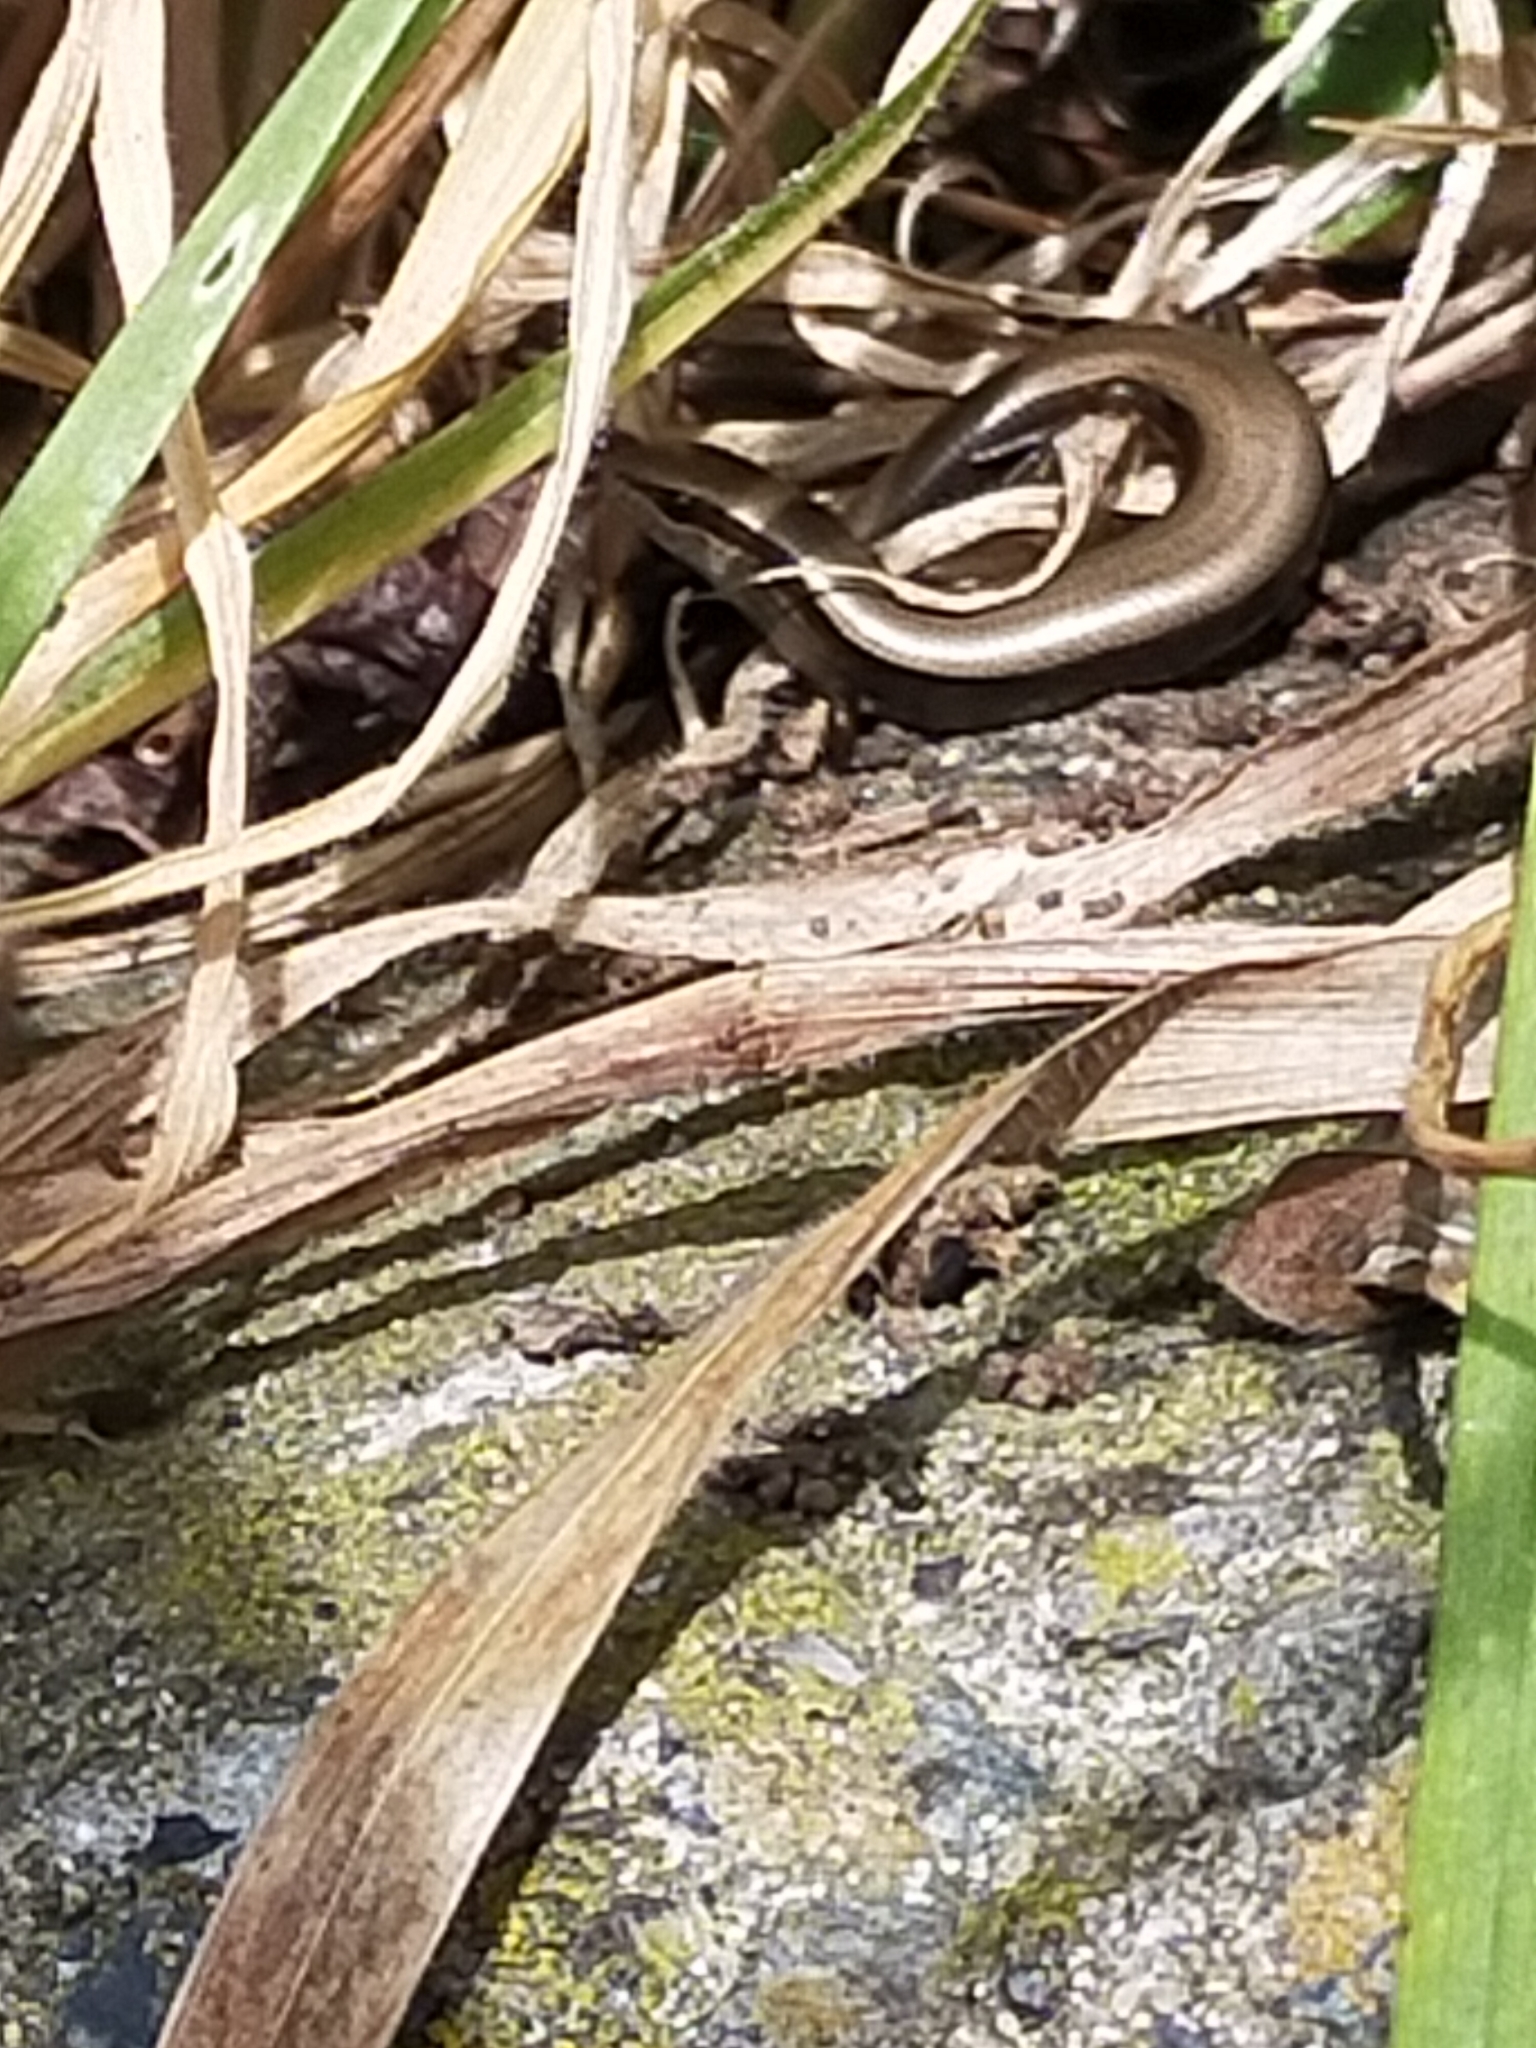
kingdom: Animalia
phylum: Chordata
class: Squamata
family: Scincidae
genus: Ablepharus
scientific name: Ablepharus kitaibelii
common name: Juniper skink
